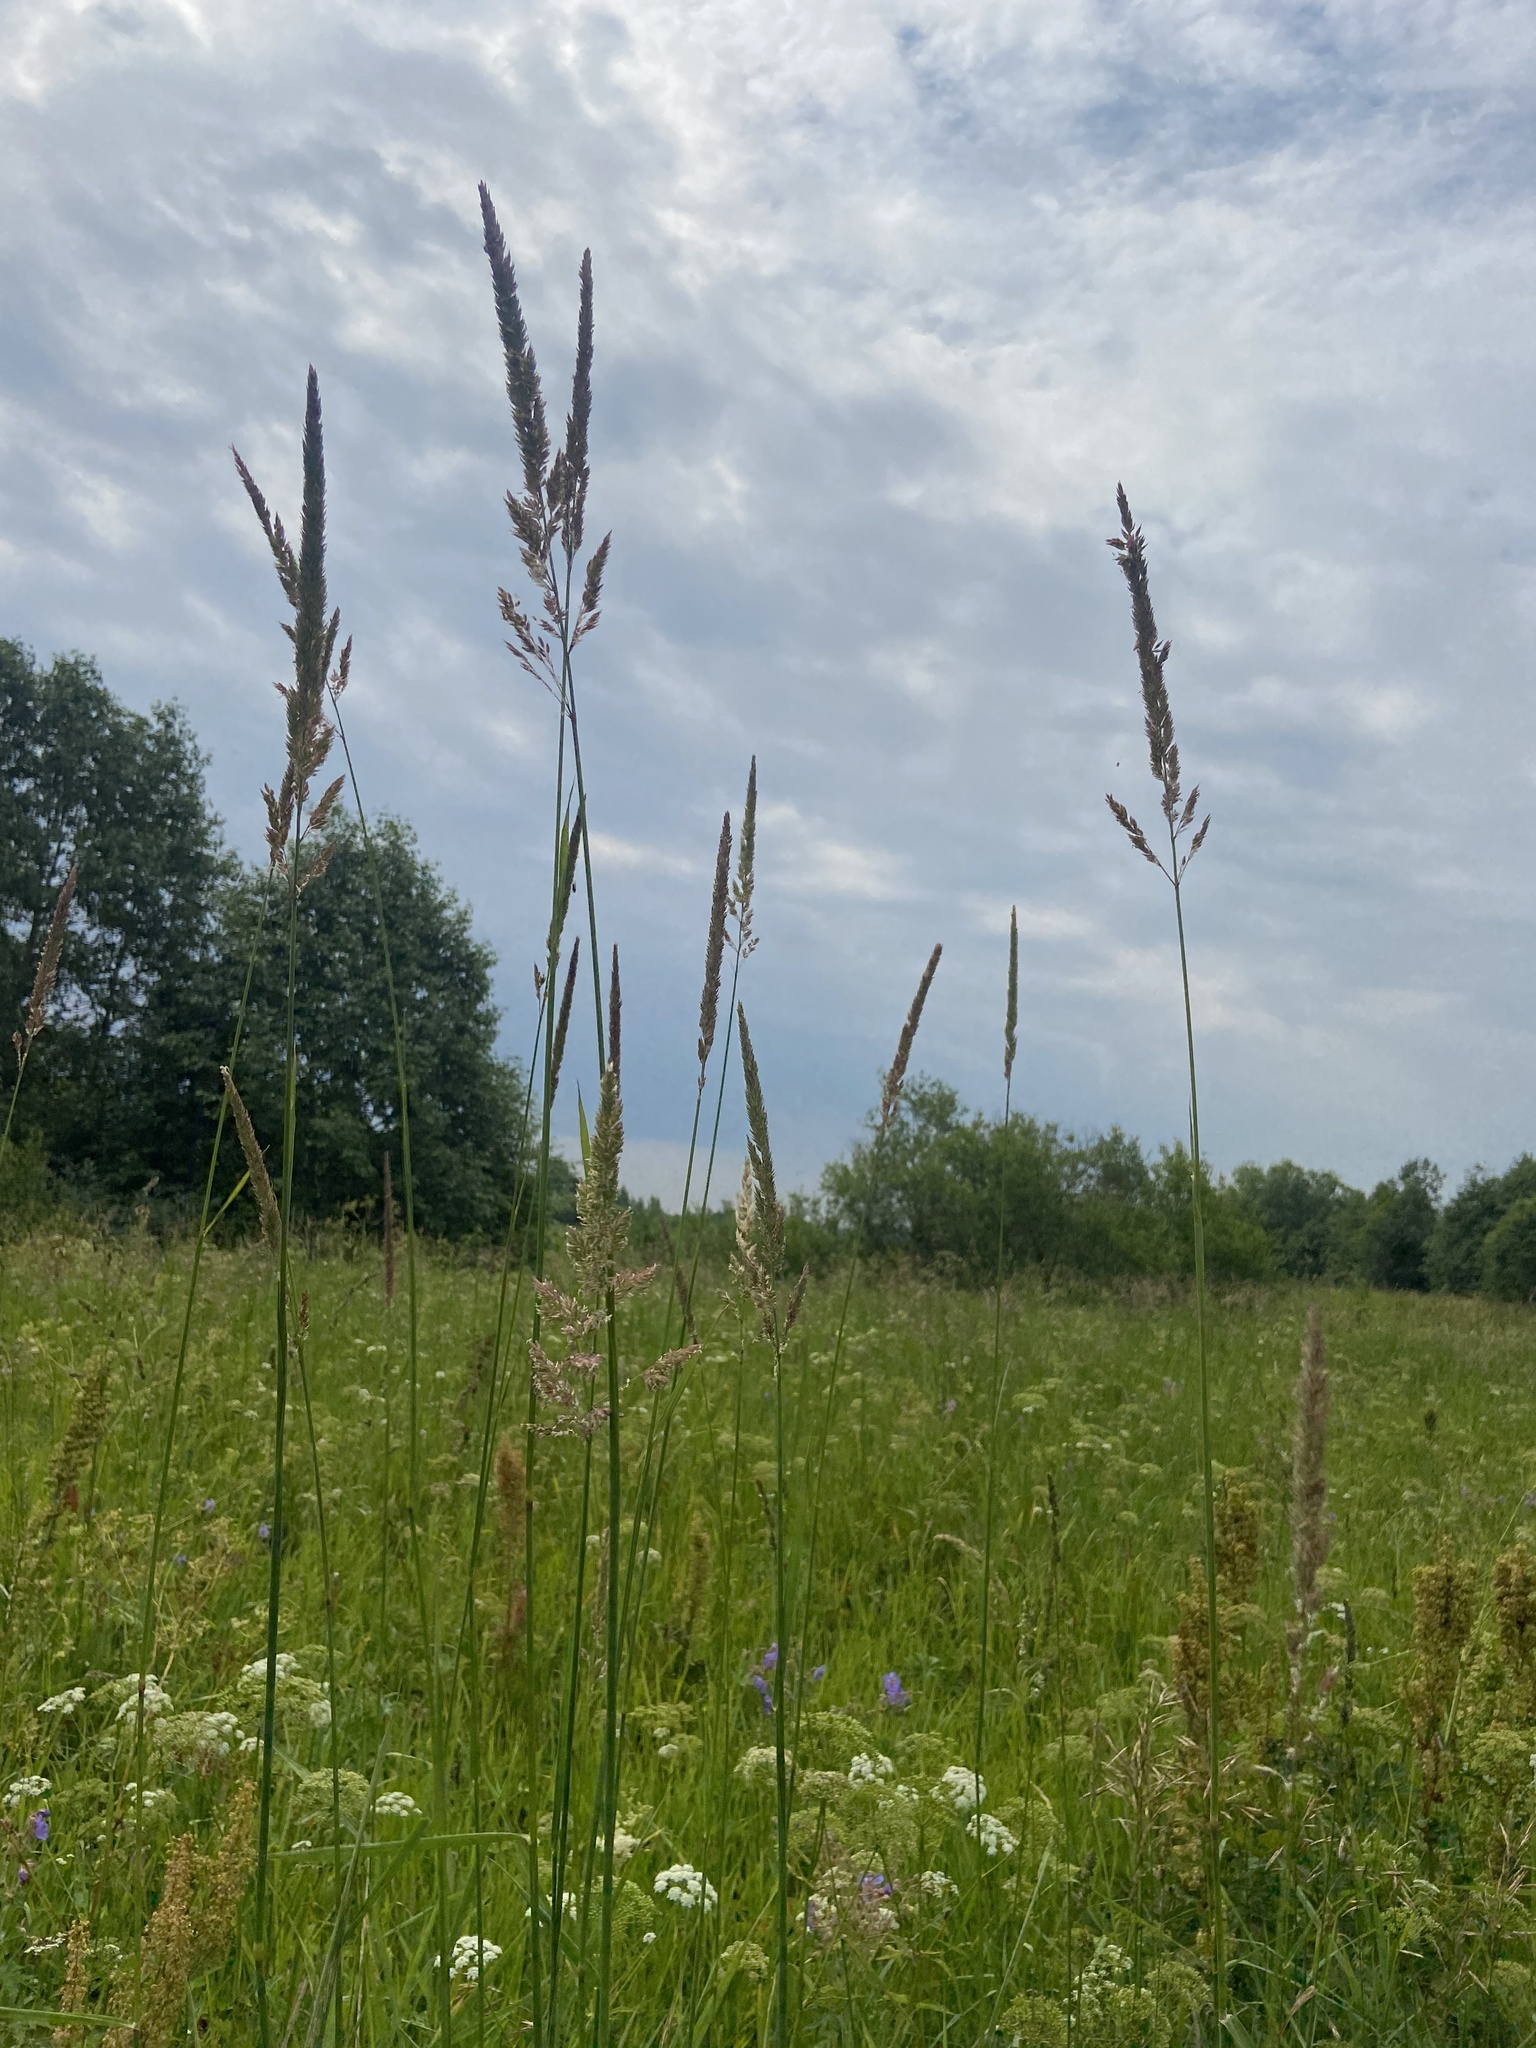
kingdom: Plantae
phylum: Tracheophyta
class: Liliopsida
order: Poales
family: Poaceae
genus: Phalaris
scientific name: Phalaris arundinacea
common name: Reed canary-grass
